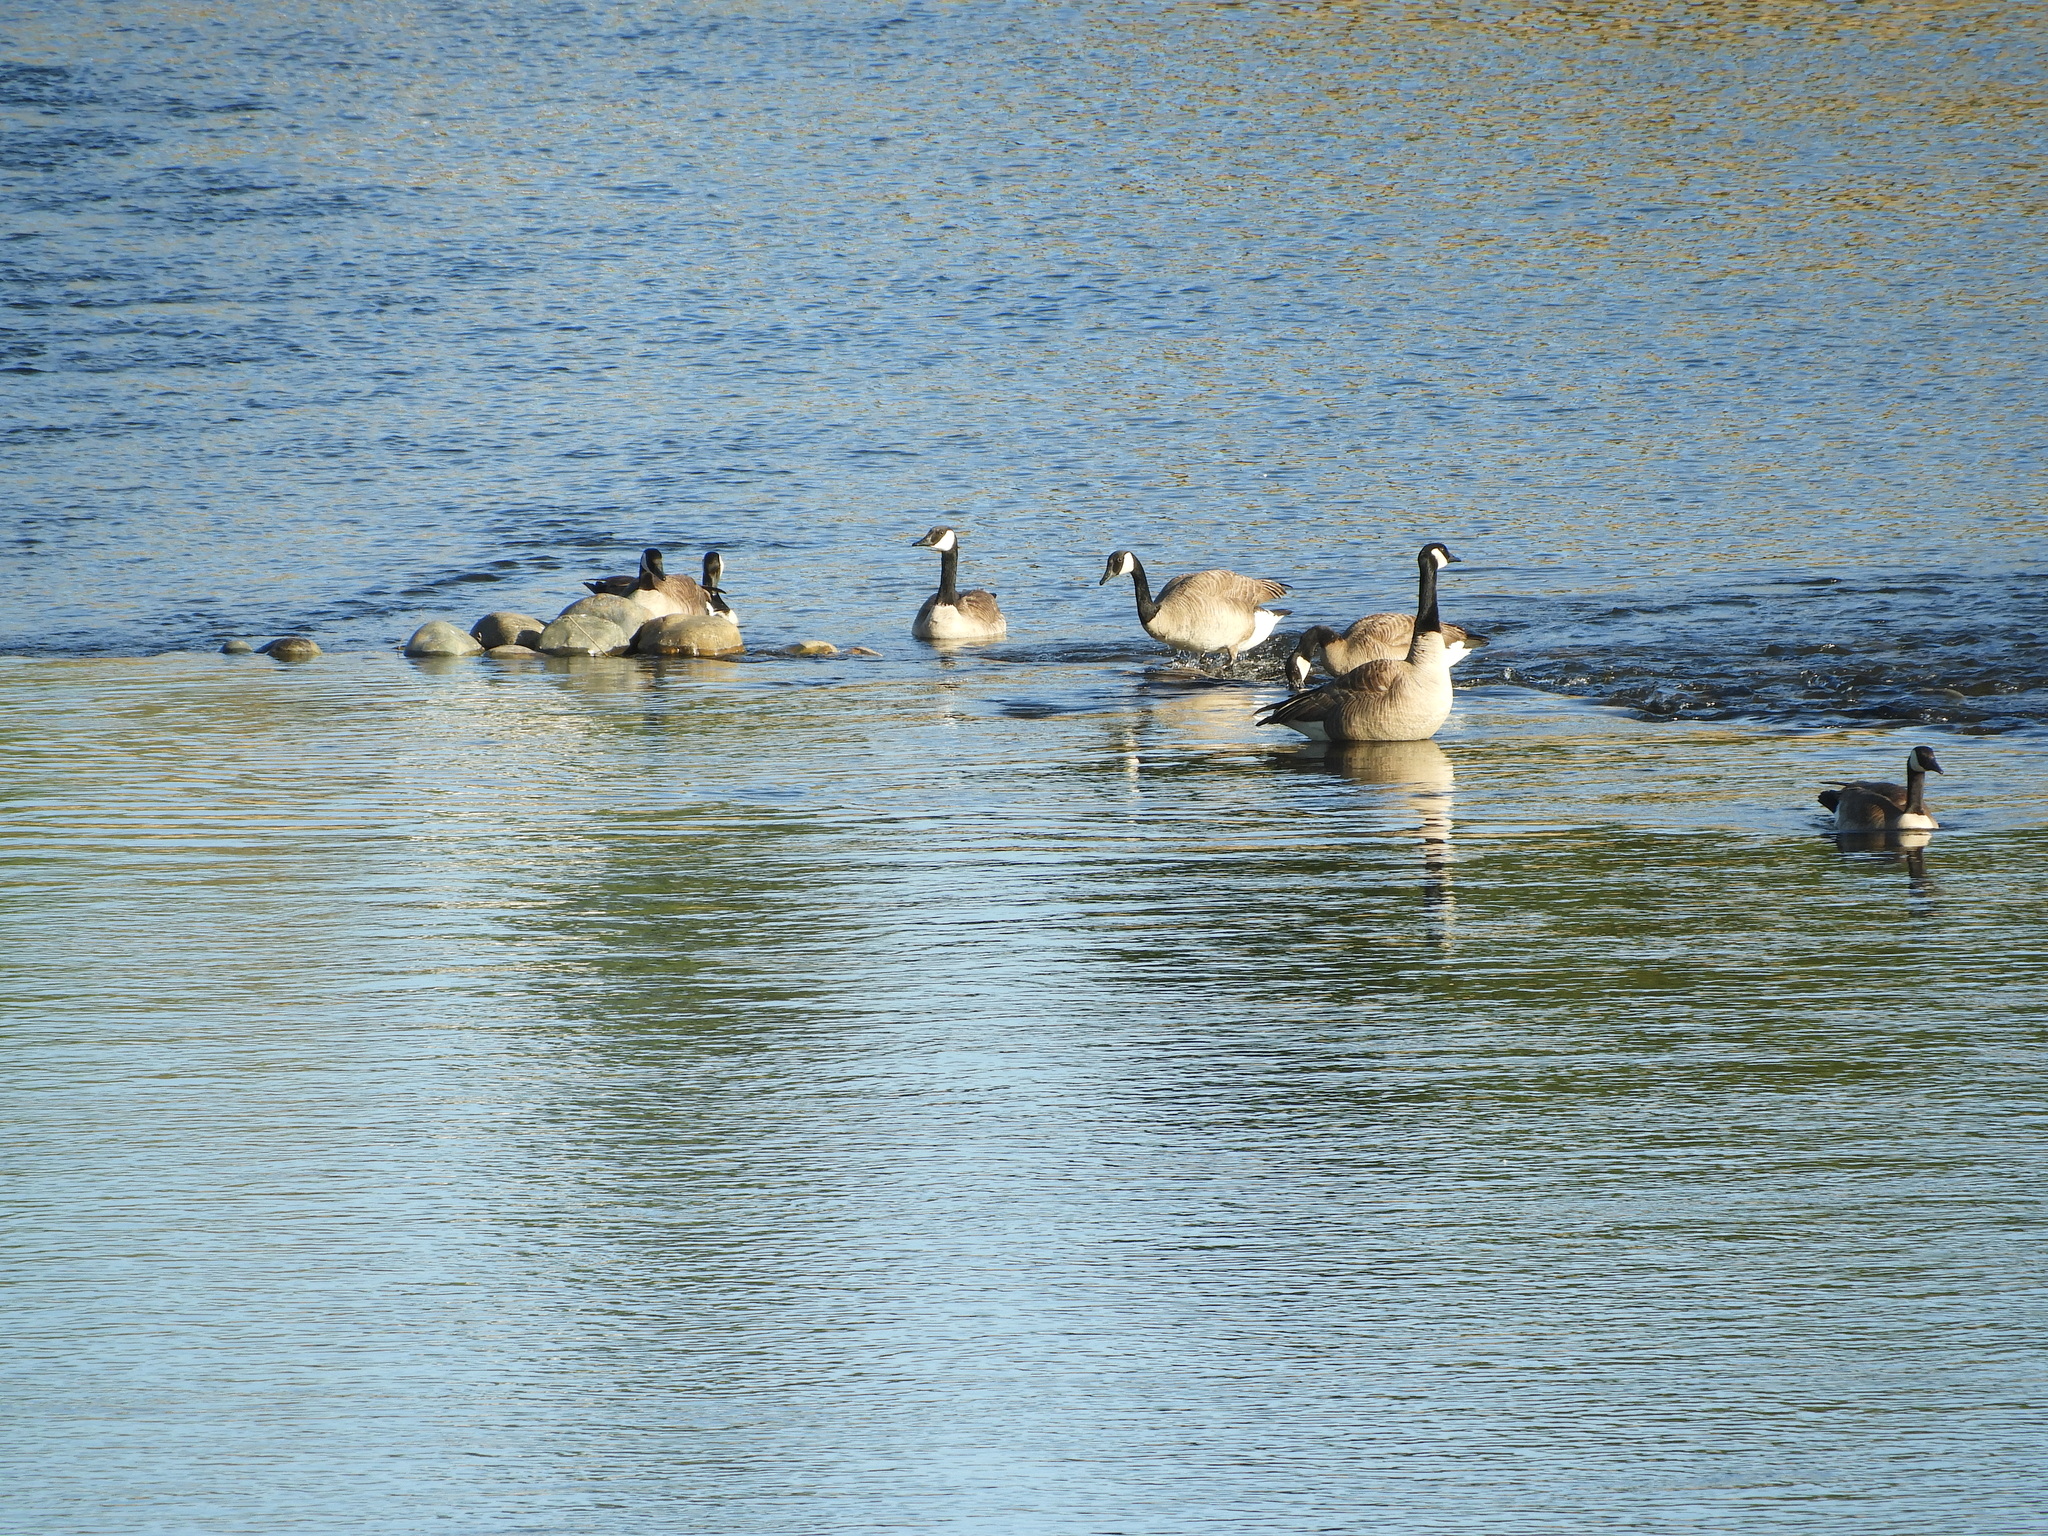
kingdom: Animalia
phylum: Chordata
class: Aves
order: Anseriformes
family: Anatidae
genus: Branta
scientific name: Branta canadensis
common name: Canada goose
